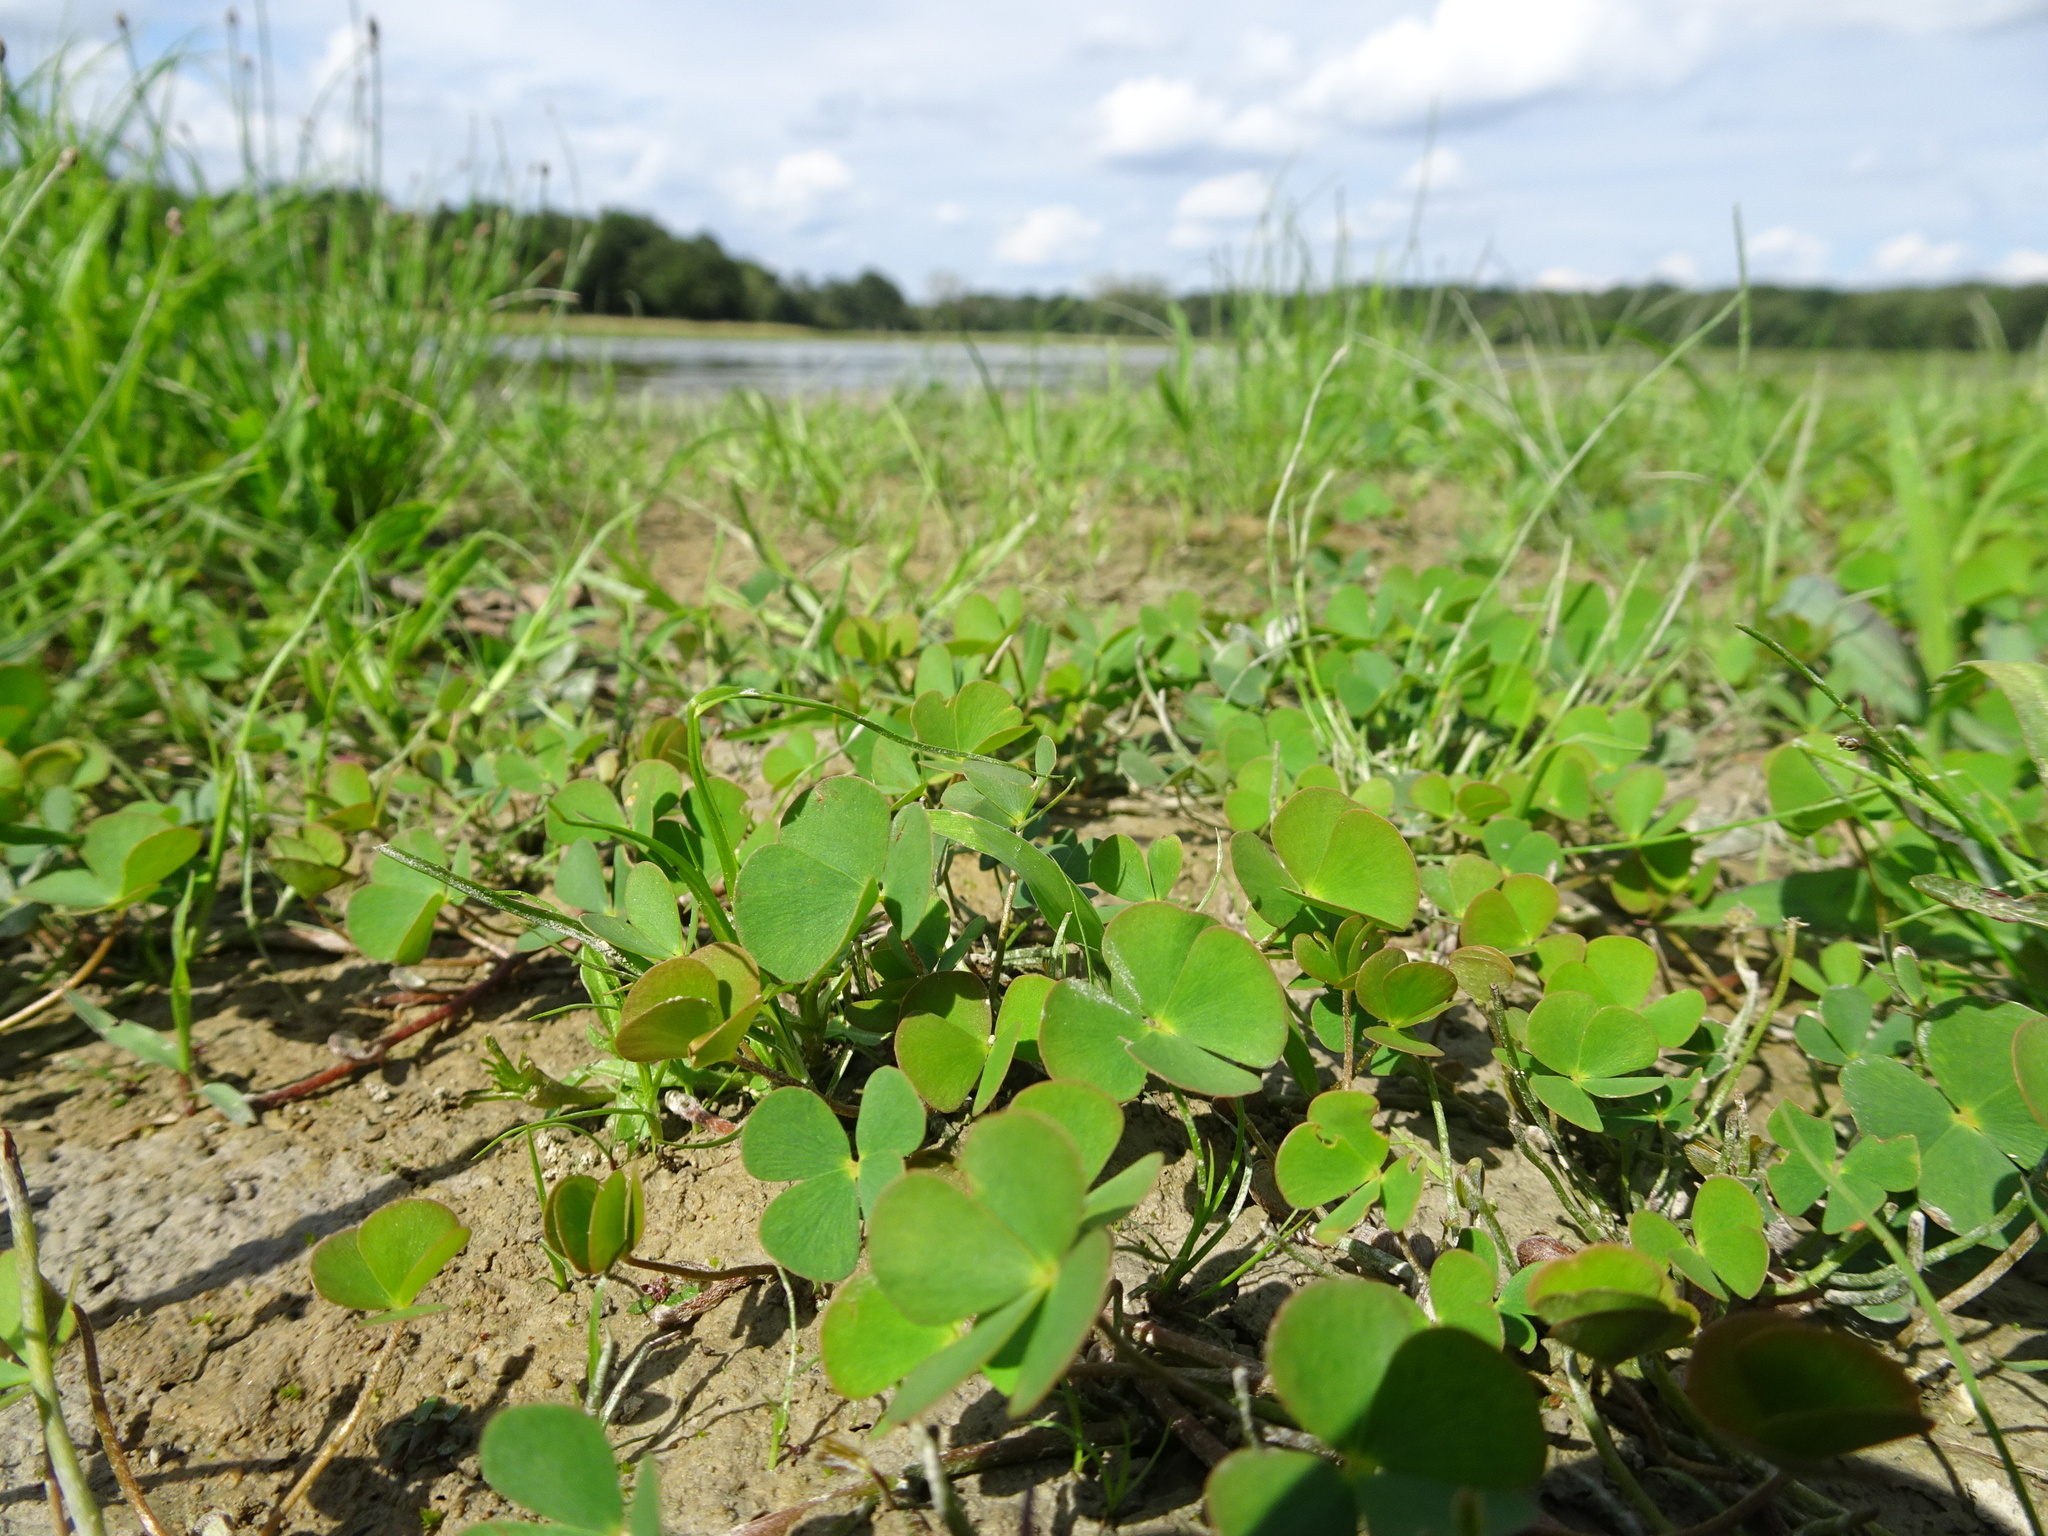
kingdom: Plantae
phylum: Tracheophyta
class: Polypodiopsida
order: Salviniales
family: Marsileaceae
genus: Marsilea
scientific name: Marsilea quadrifolia
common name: Water shamrock
